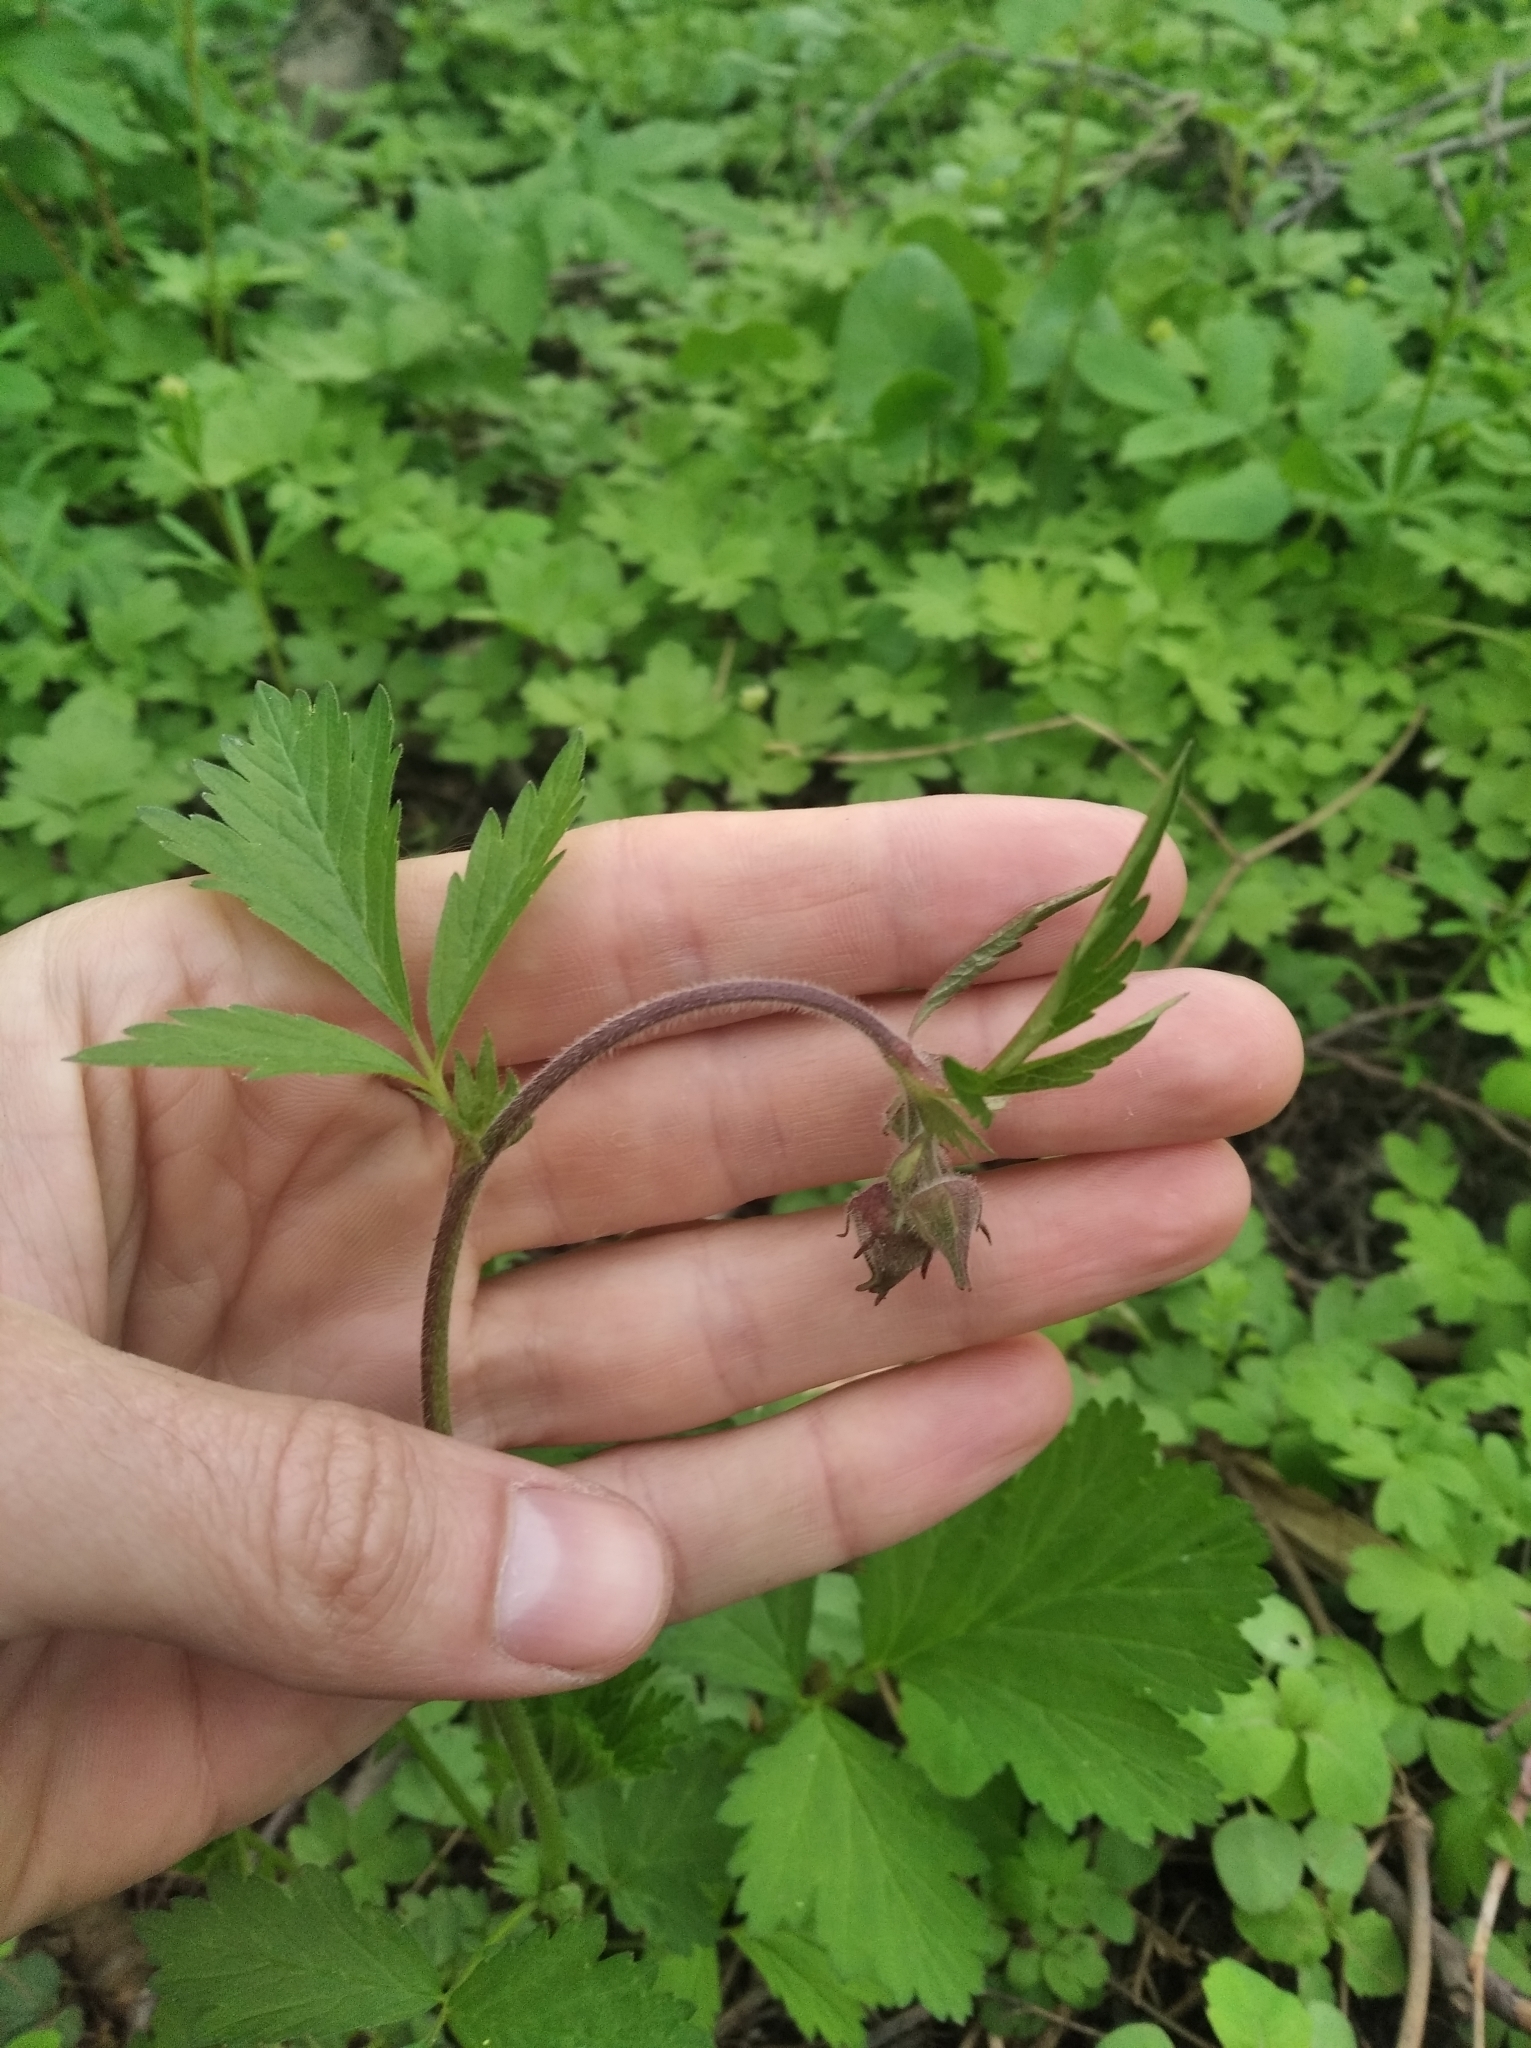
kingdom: Plantae
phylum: Tracheophyta
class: Magnoliopsida
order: Rosales
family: Rosaceae
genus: Geum
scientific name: Geum rivale
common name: Water avens
